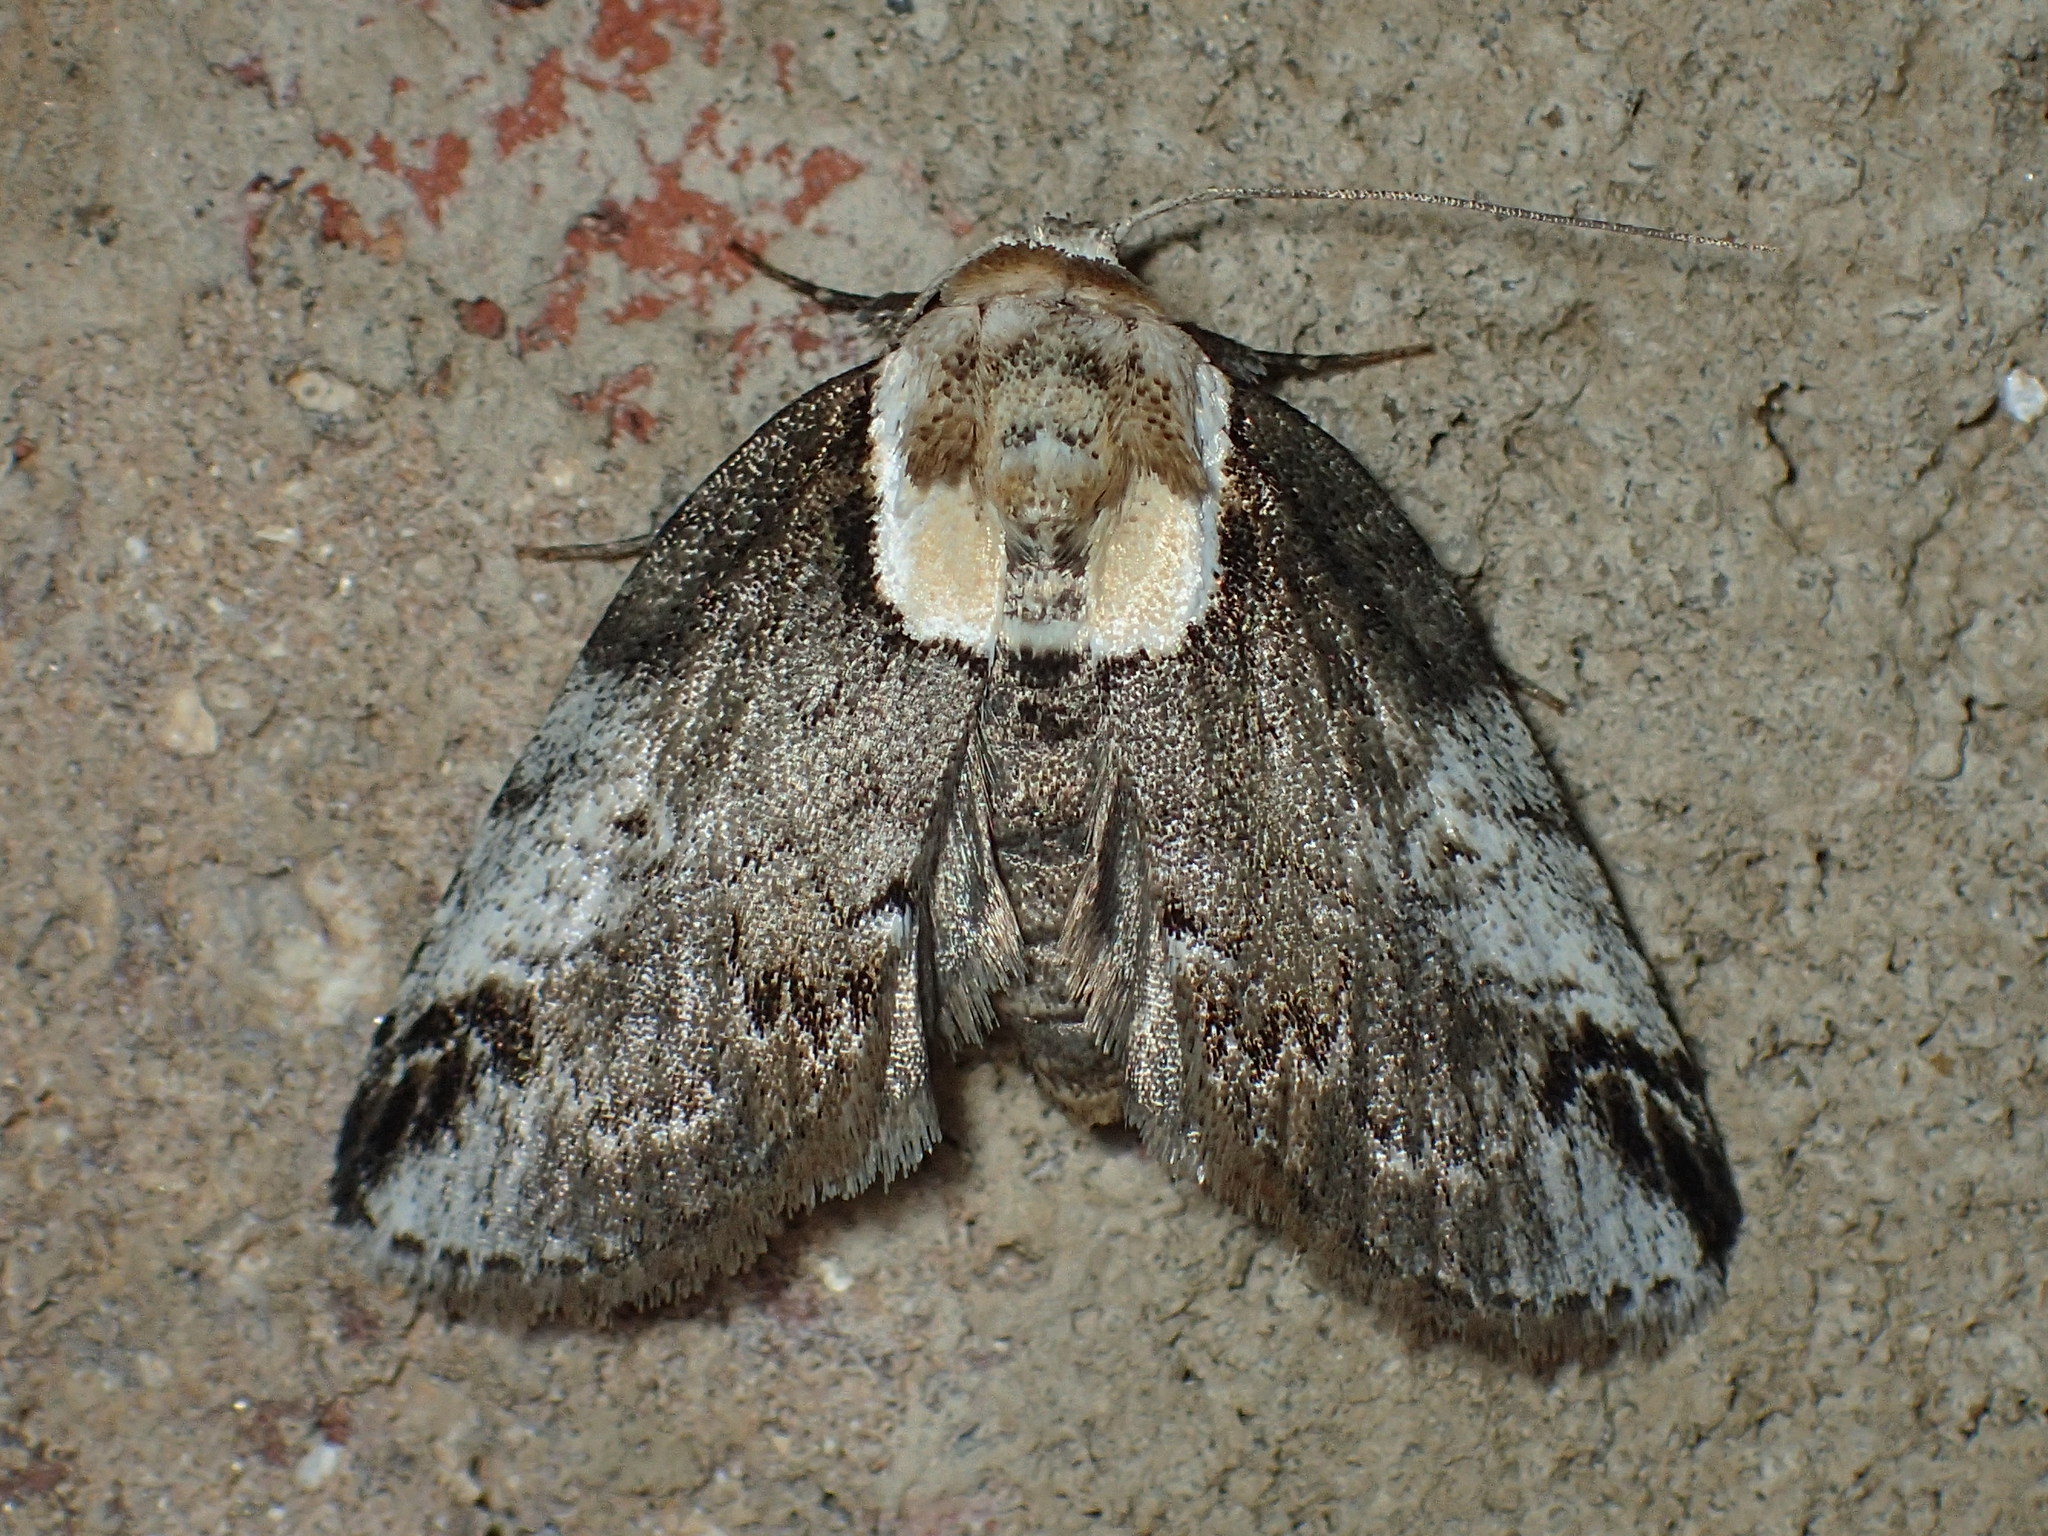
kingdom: Animalia
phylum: Arthropoda
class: Insecta
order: Lepidoptera
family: Nolidae
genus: Baileya
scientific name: Baileya ophthalmica
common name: Eyed baileya moth
